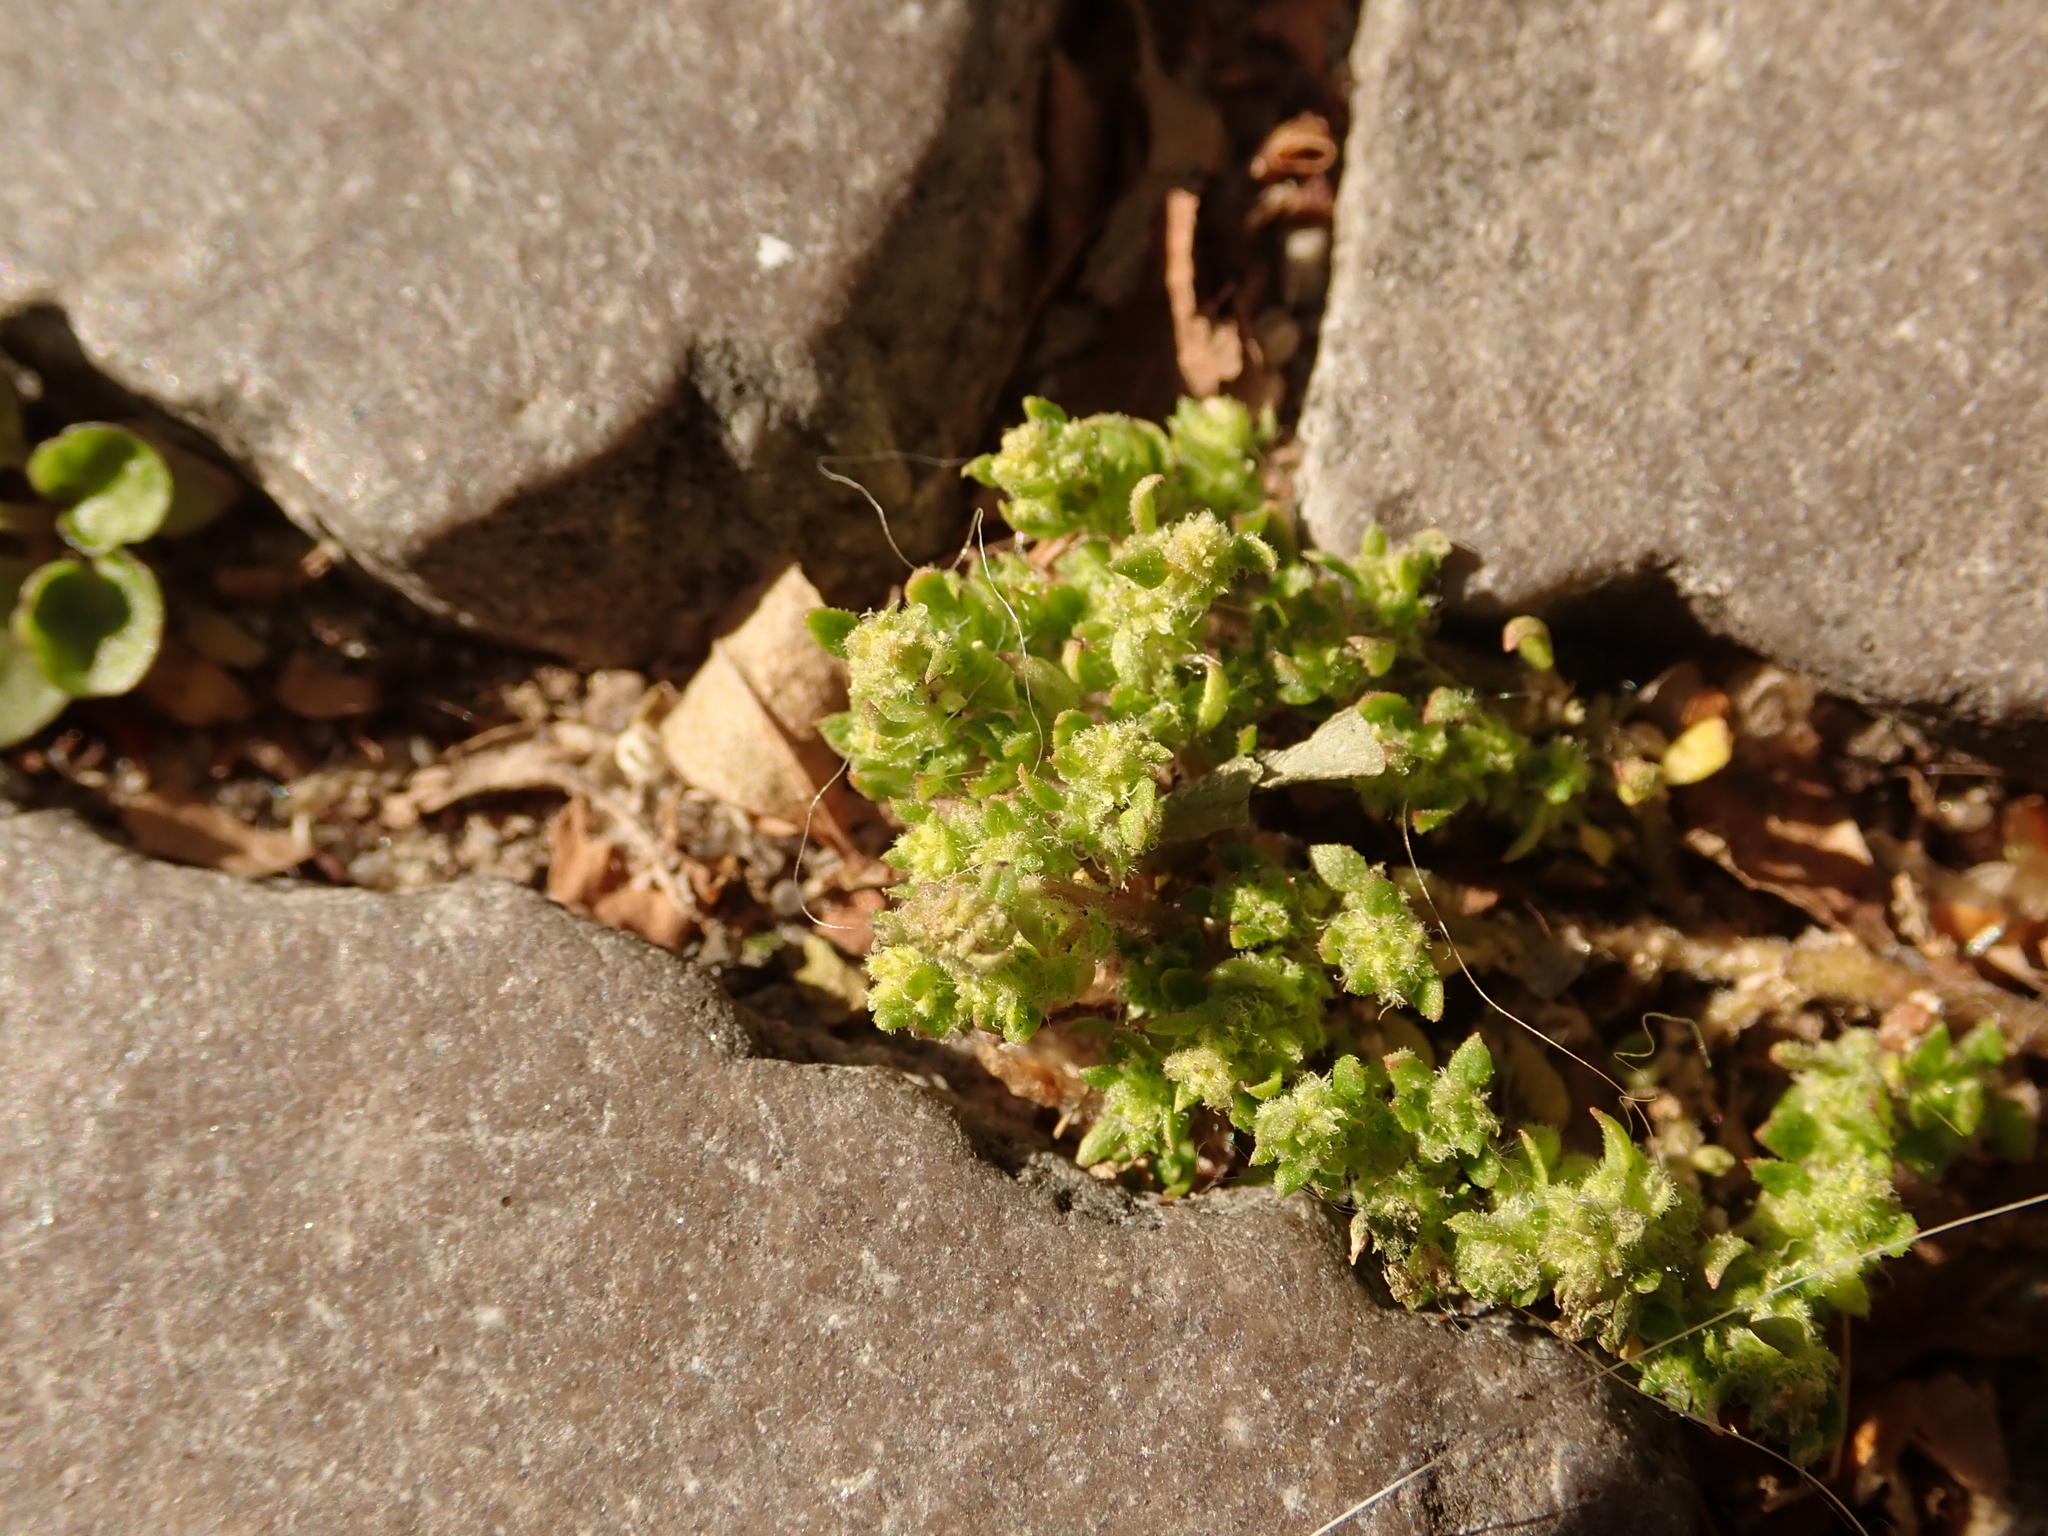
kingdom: Plantae
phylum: Tracheophyta
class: Magnoliopsida
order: Caryophyllales
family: Caryophyllaceae
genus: Herniaria
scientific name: Herniaria hirsuta
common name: Hairy rupturewort
